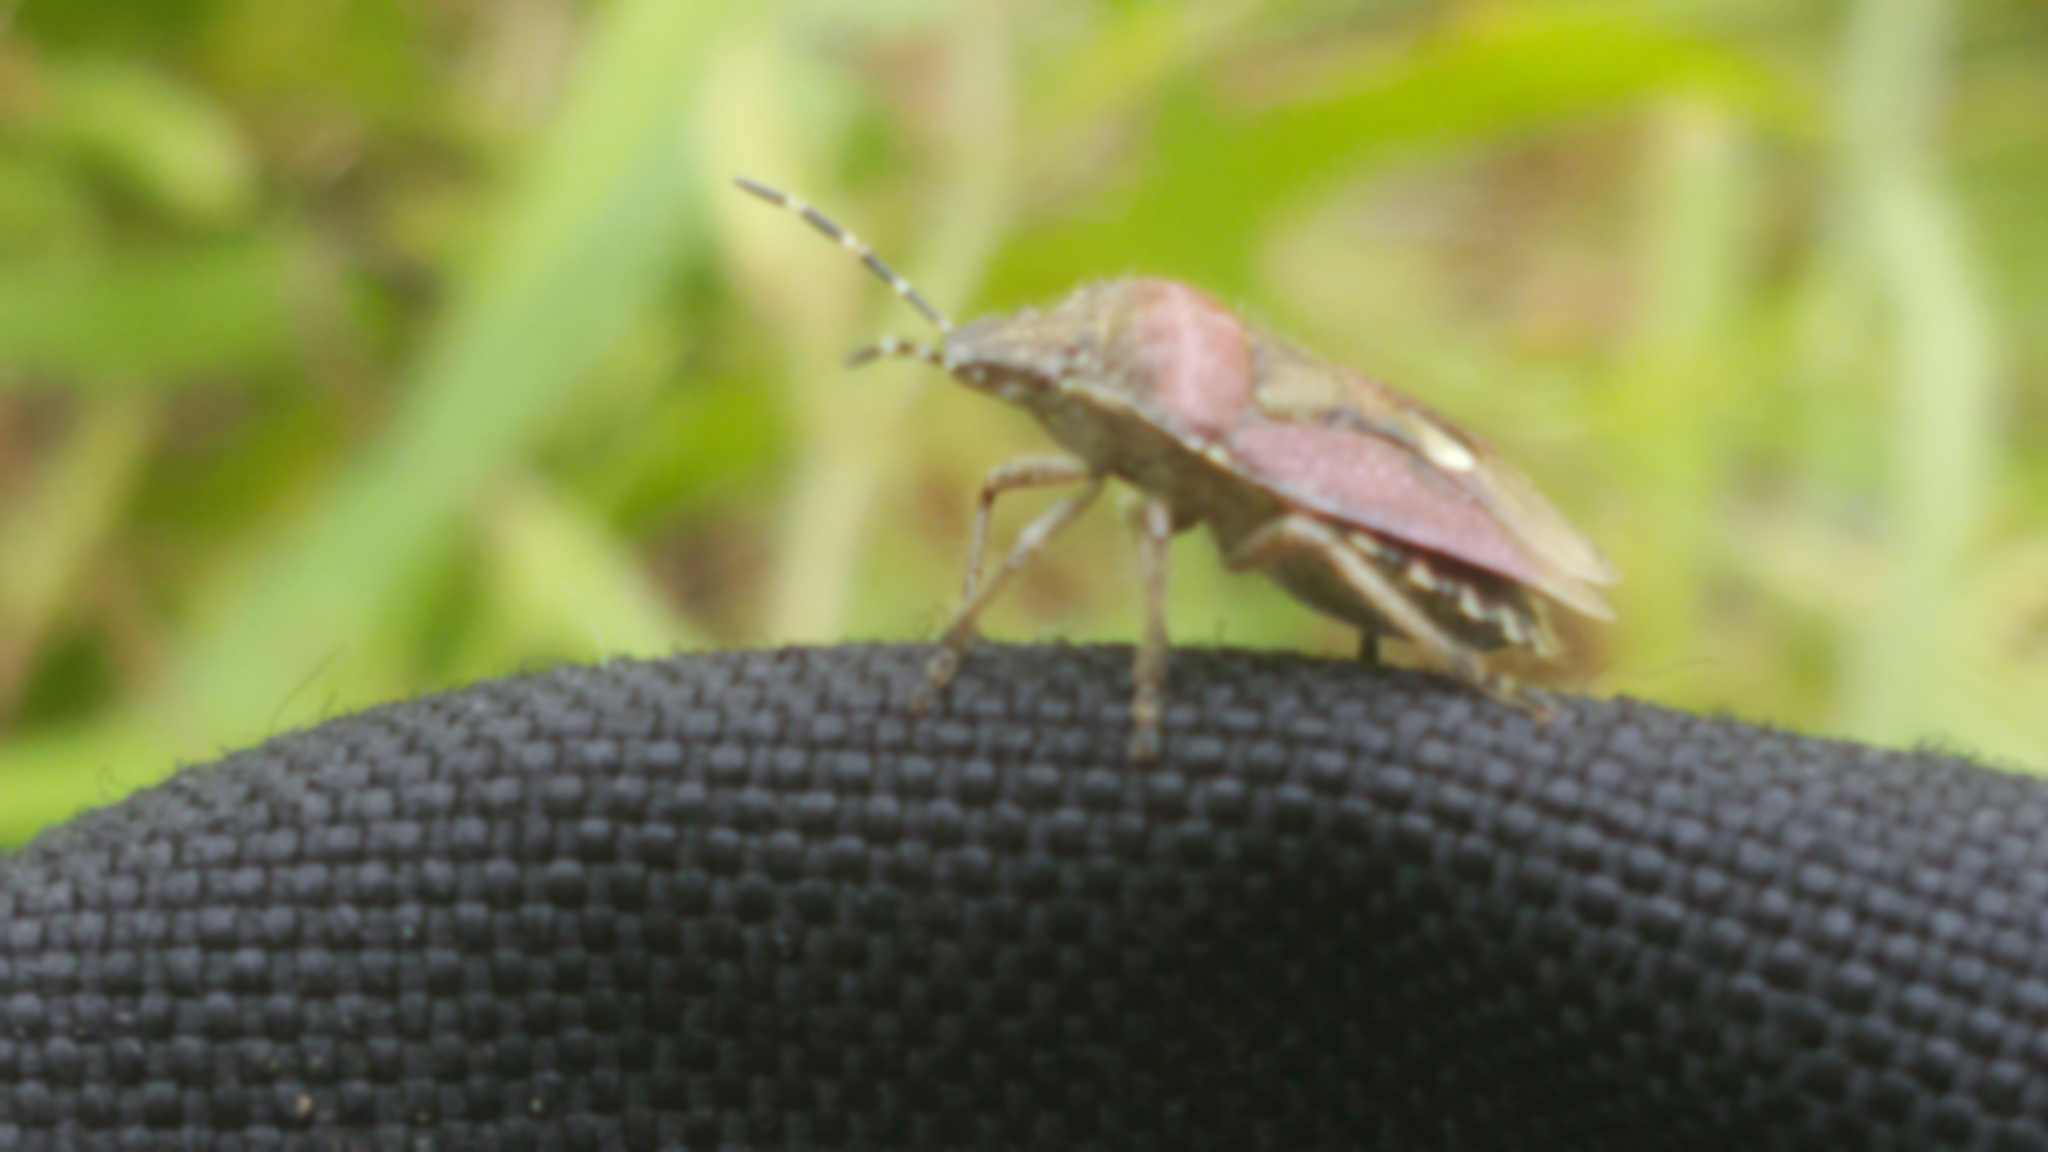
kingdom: Animalia
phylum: Arthropoda
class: Insecta
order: Hemiptera
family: Pentatomidae
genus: Dolycoris
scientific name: Dolycoris baccarum
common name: Sloe bug
